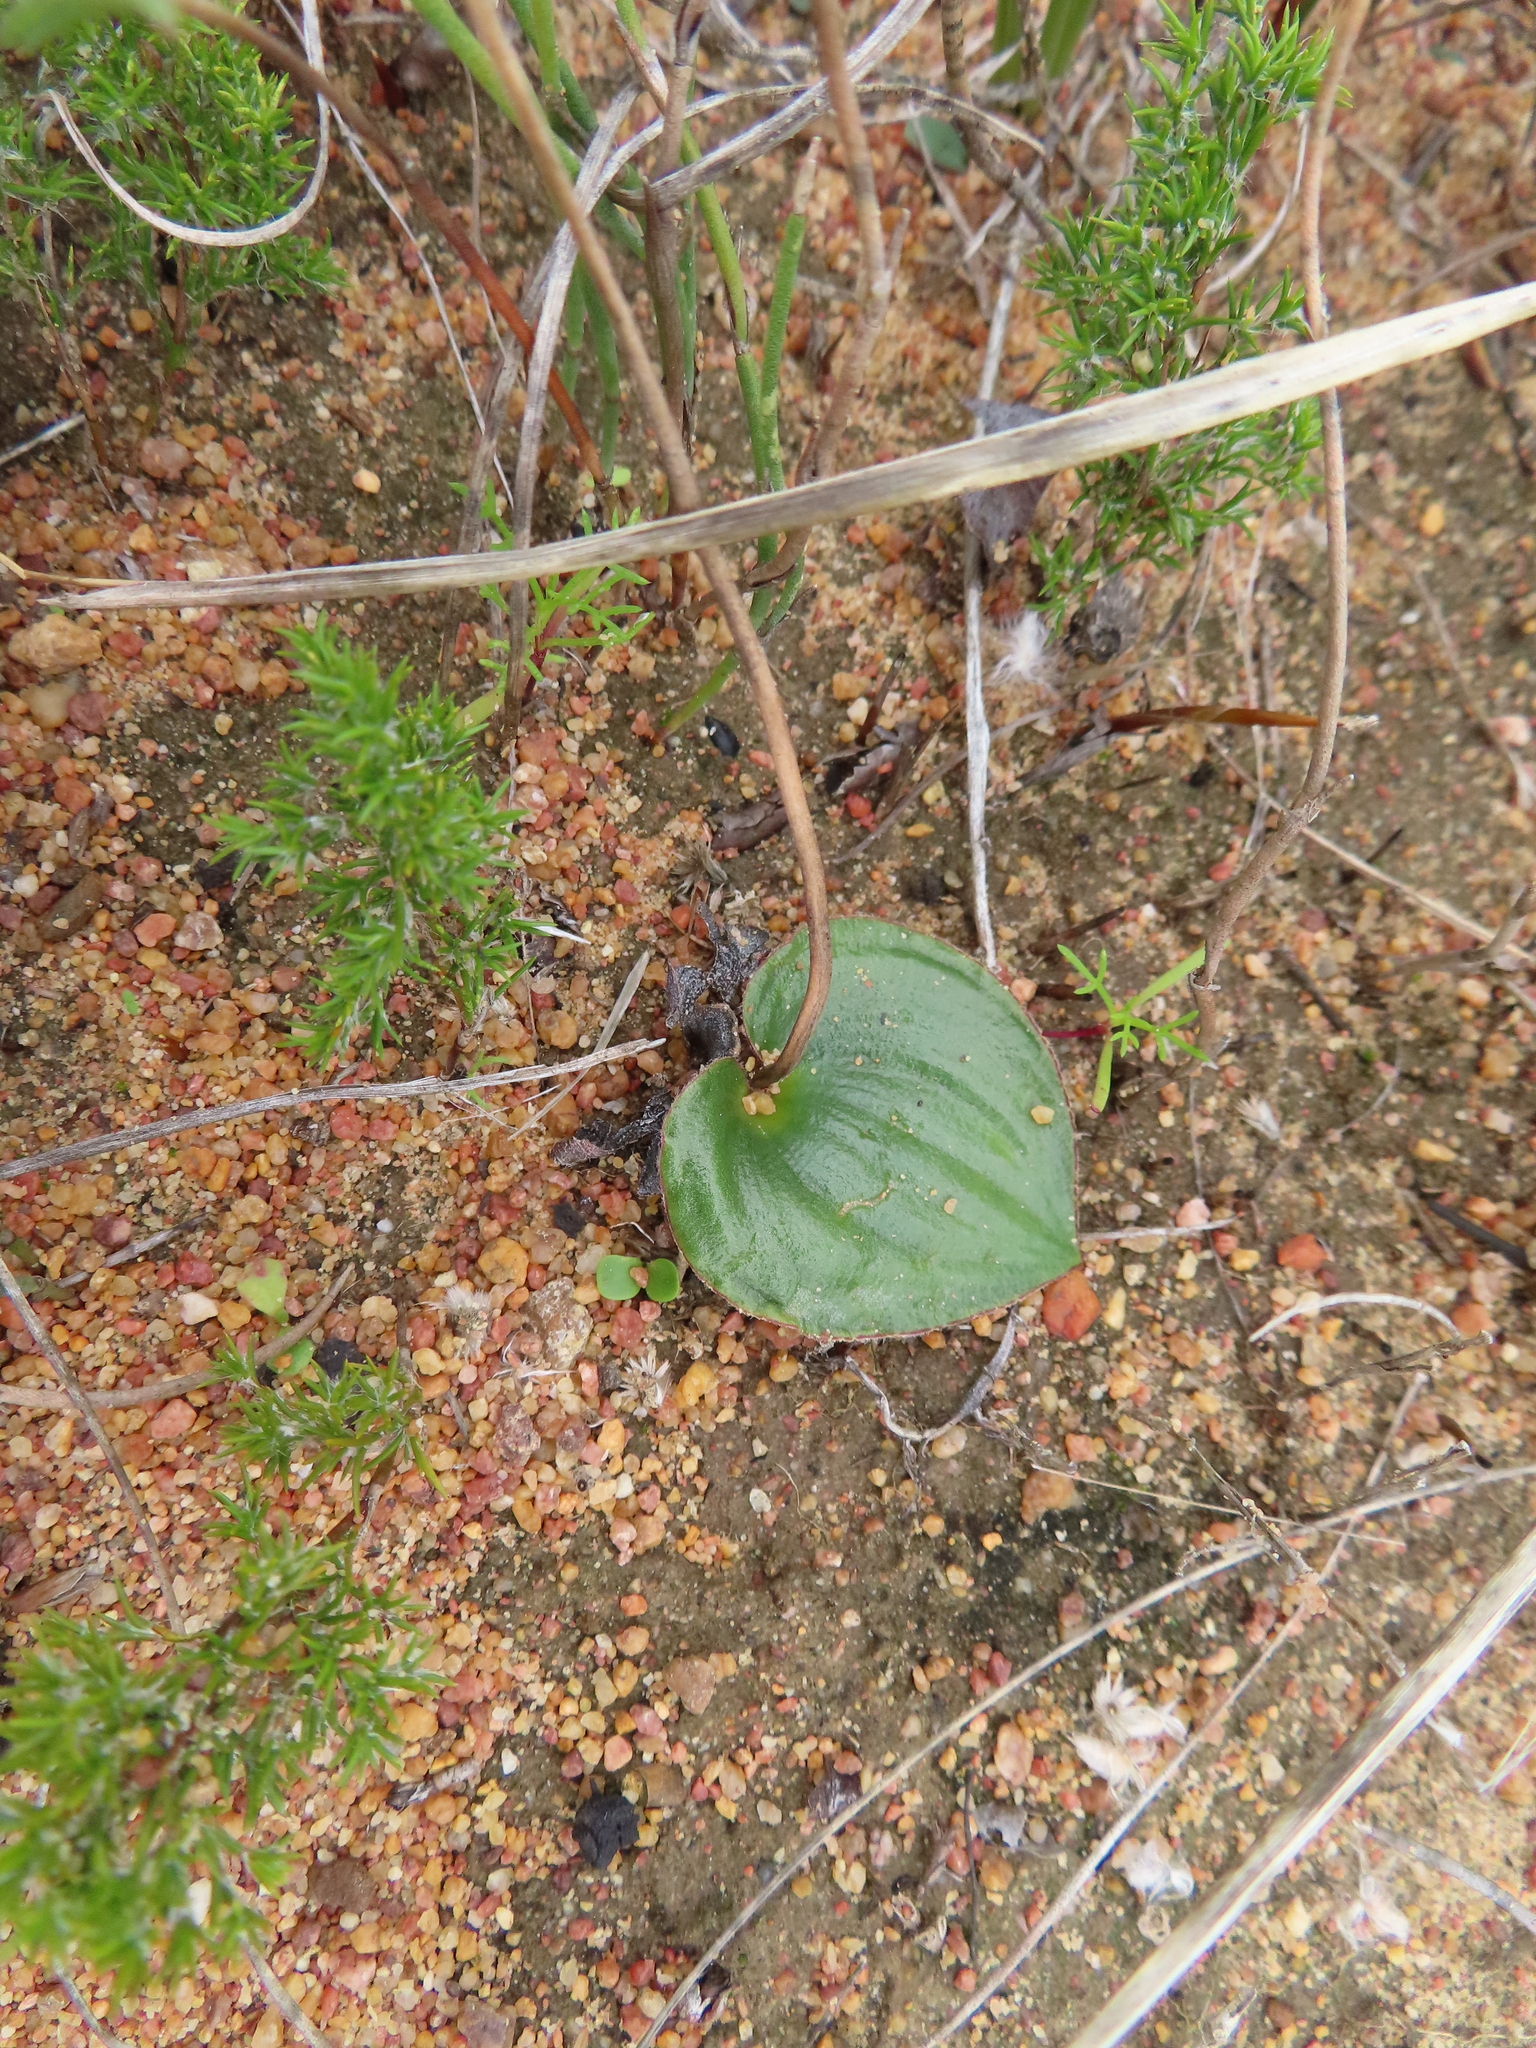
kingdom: Plantae
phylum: Tracheophyta
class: Liliopsida
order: Asparagales
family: Asparagaceae
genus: Eriospermum
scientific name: Eriospermum capense
